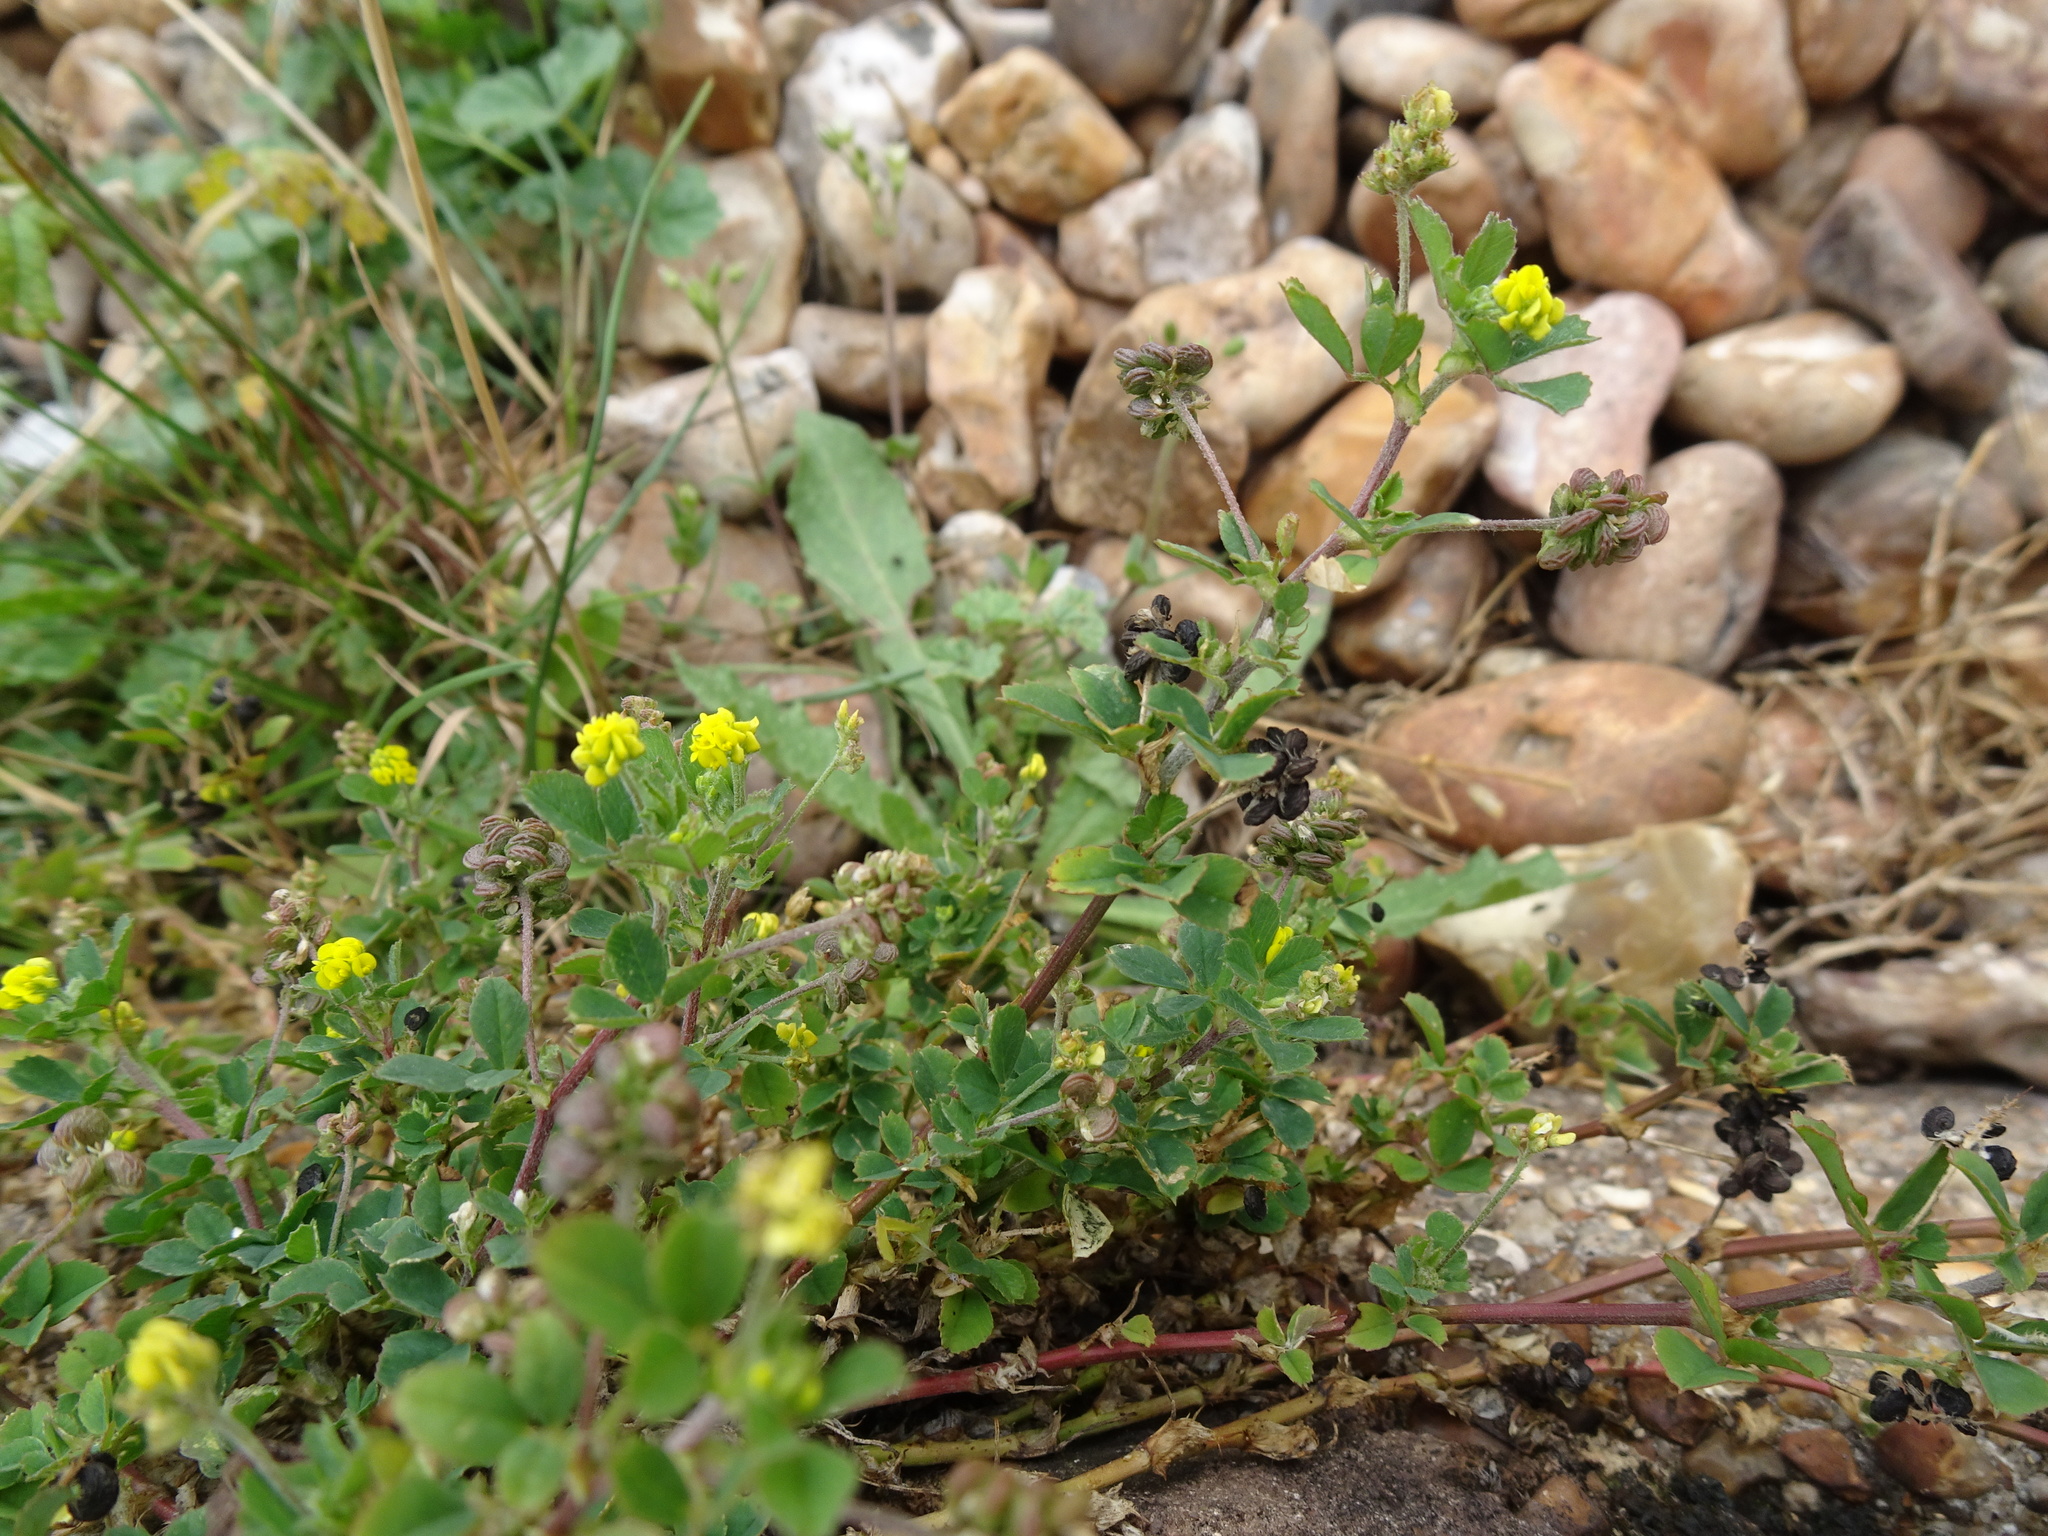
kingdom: Plantae
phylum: Tracheophyta
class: Magnoliopsida
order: Fabales
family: Fabaceae
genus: Medicago
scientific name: Medicago lupulina
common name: Black medick
